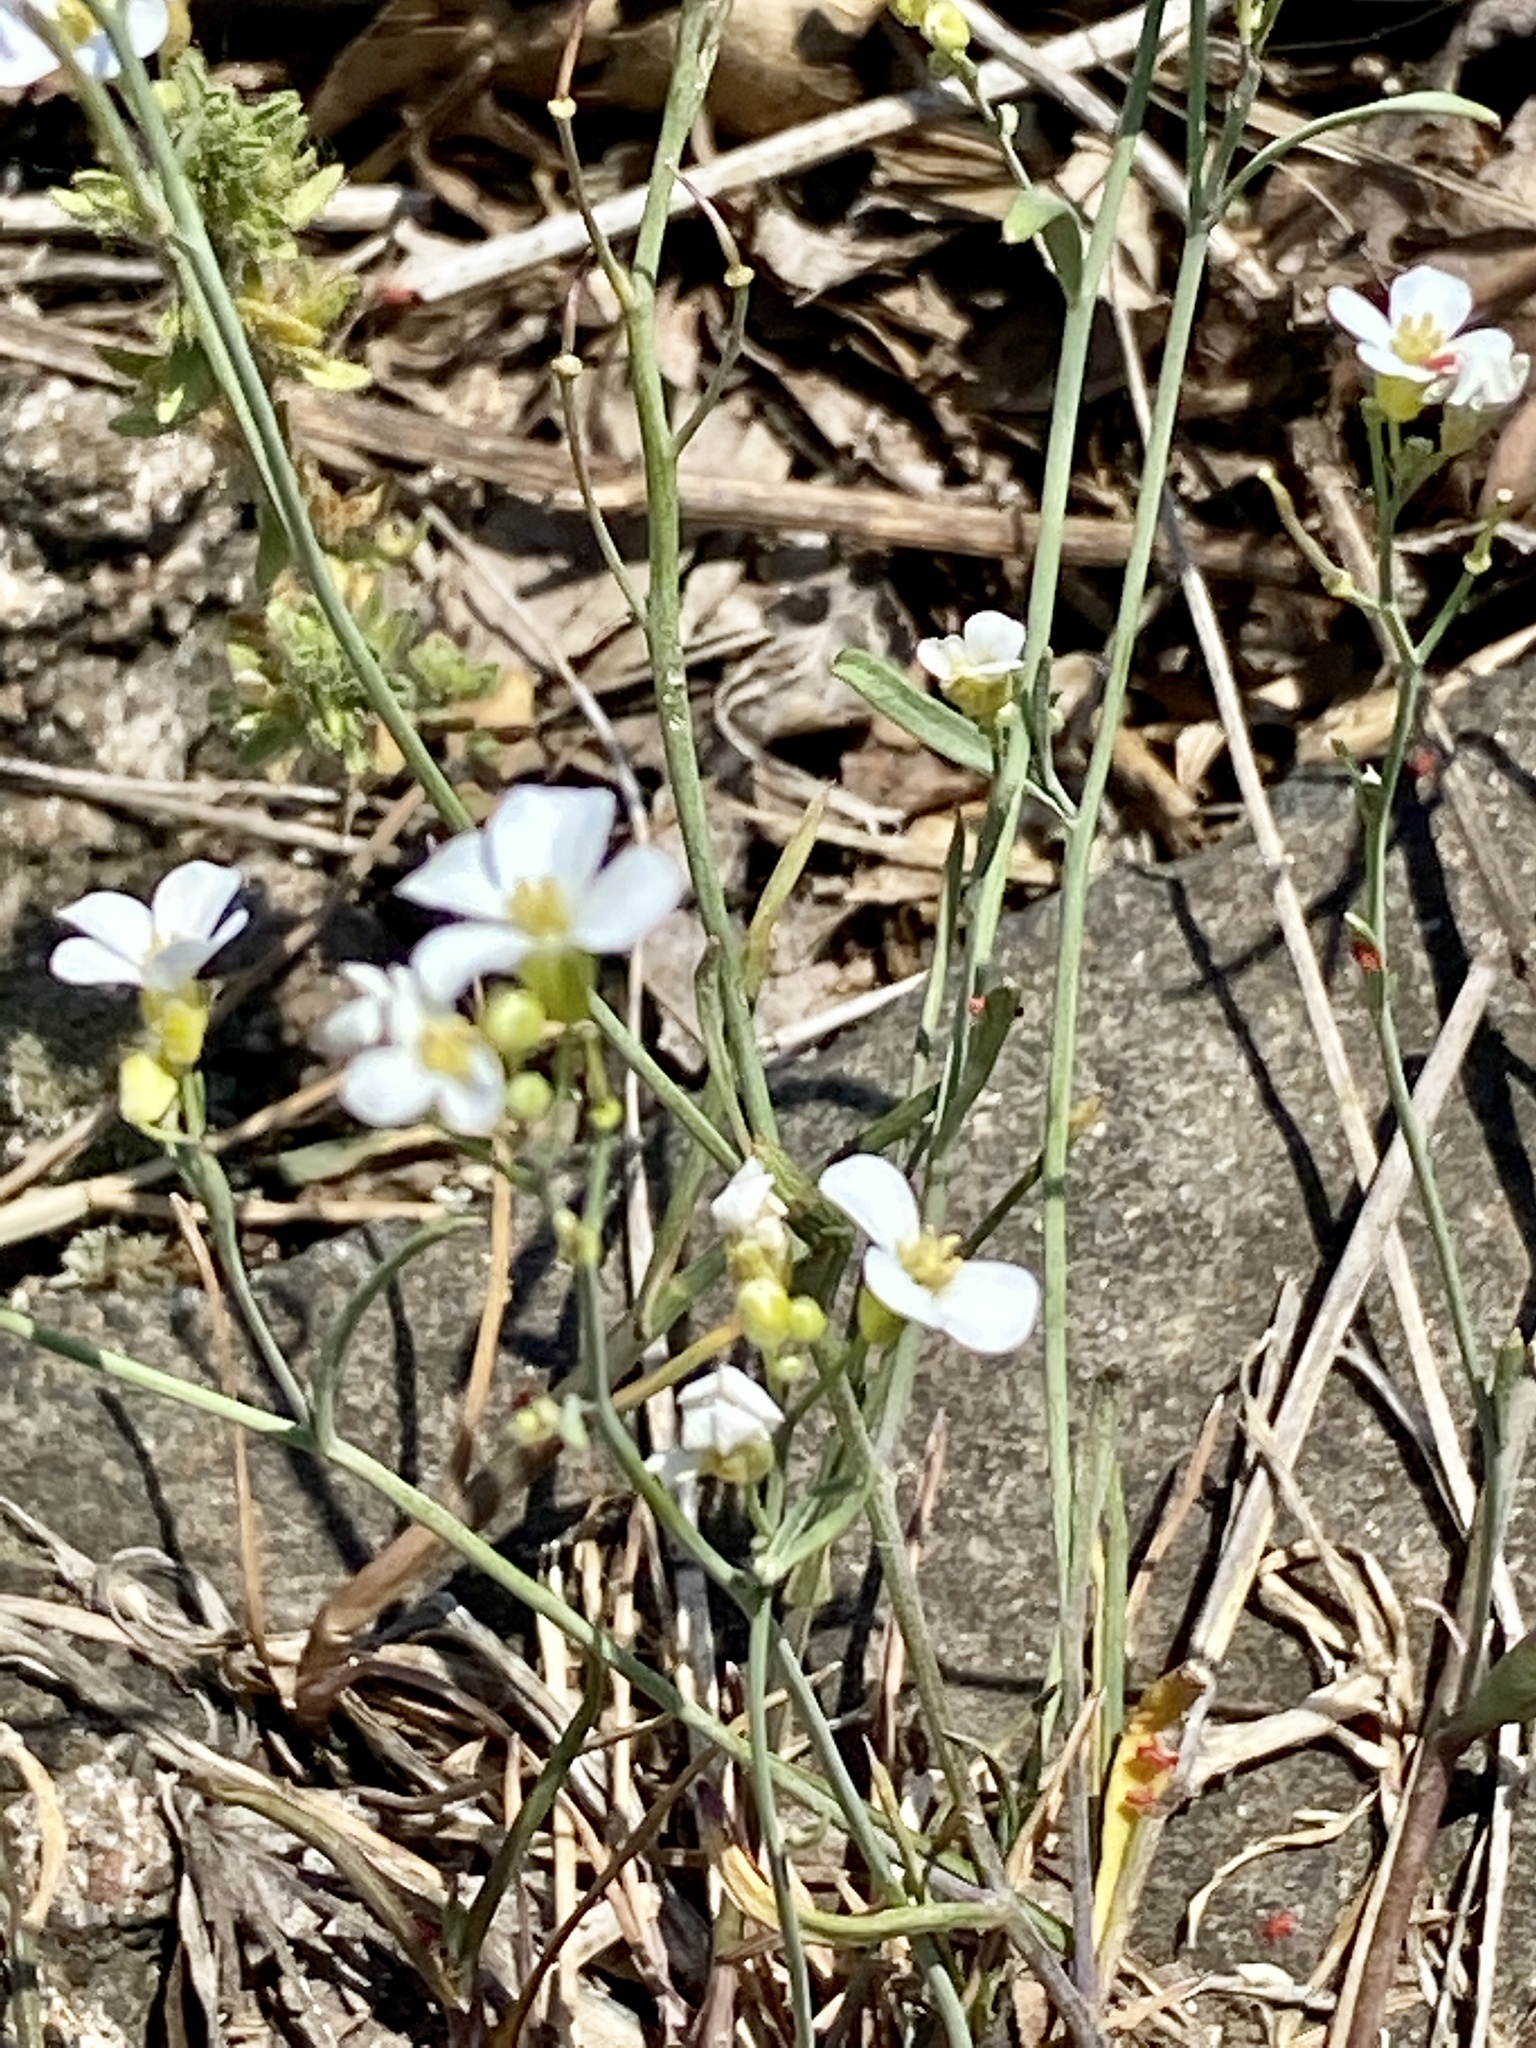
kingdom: Plantae
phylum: Tracheophyta
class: Magnoliopsida
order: Brassicales
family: Brassicaceae
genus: Arabidopsis
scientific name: Arabidopsis lyrata
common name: Lyrate rockcress
